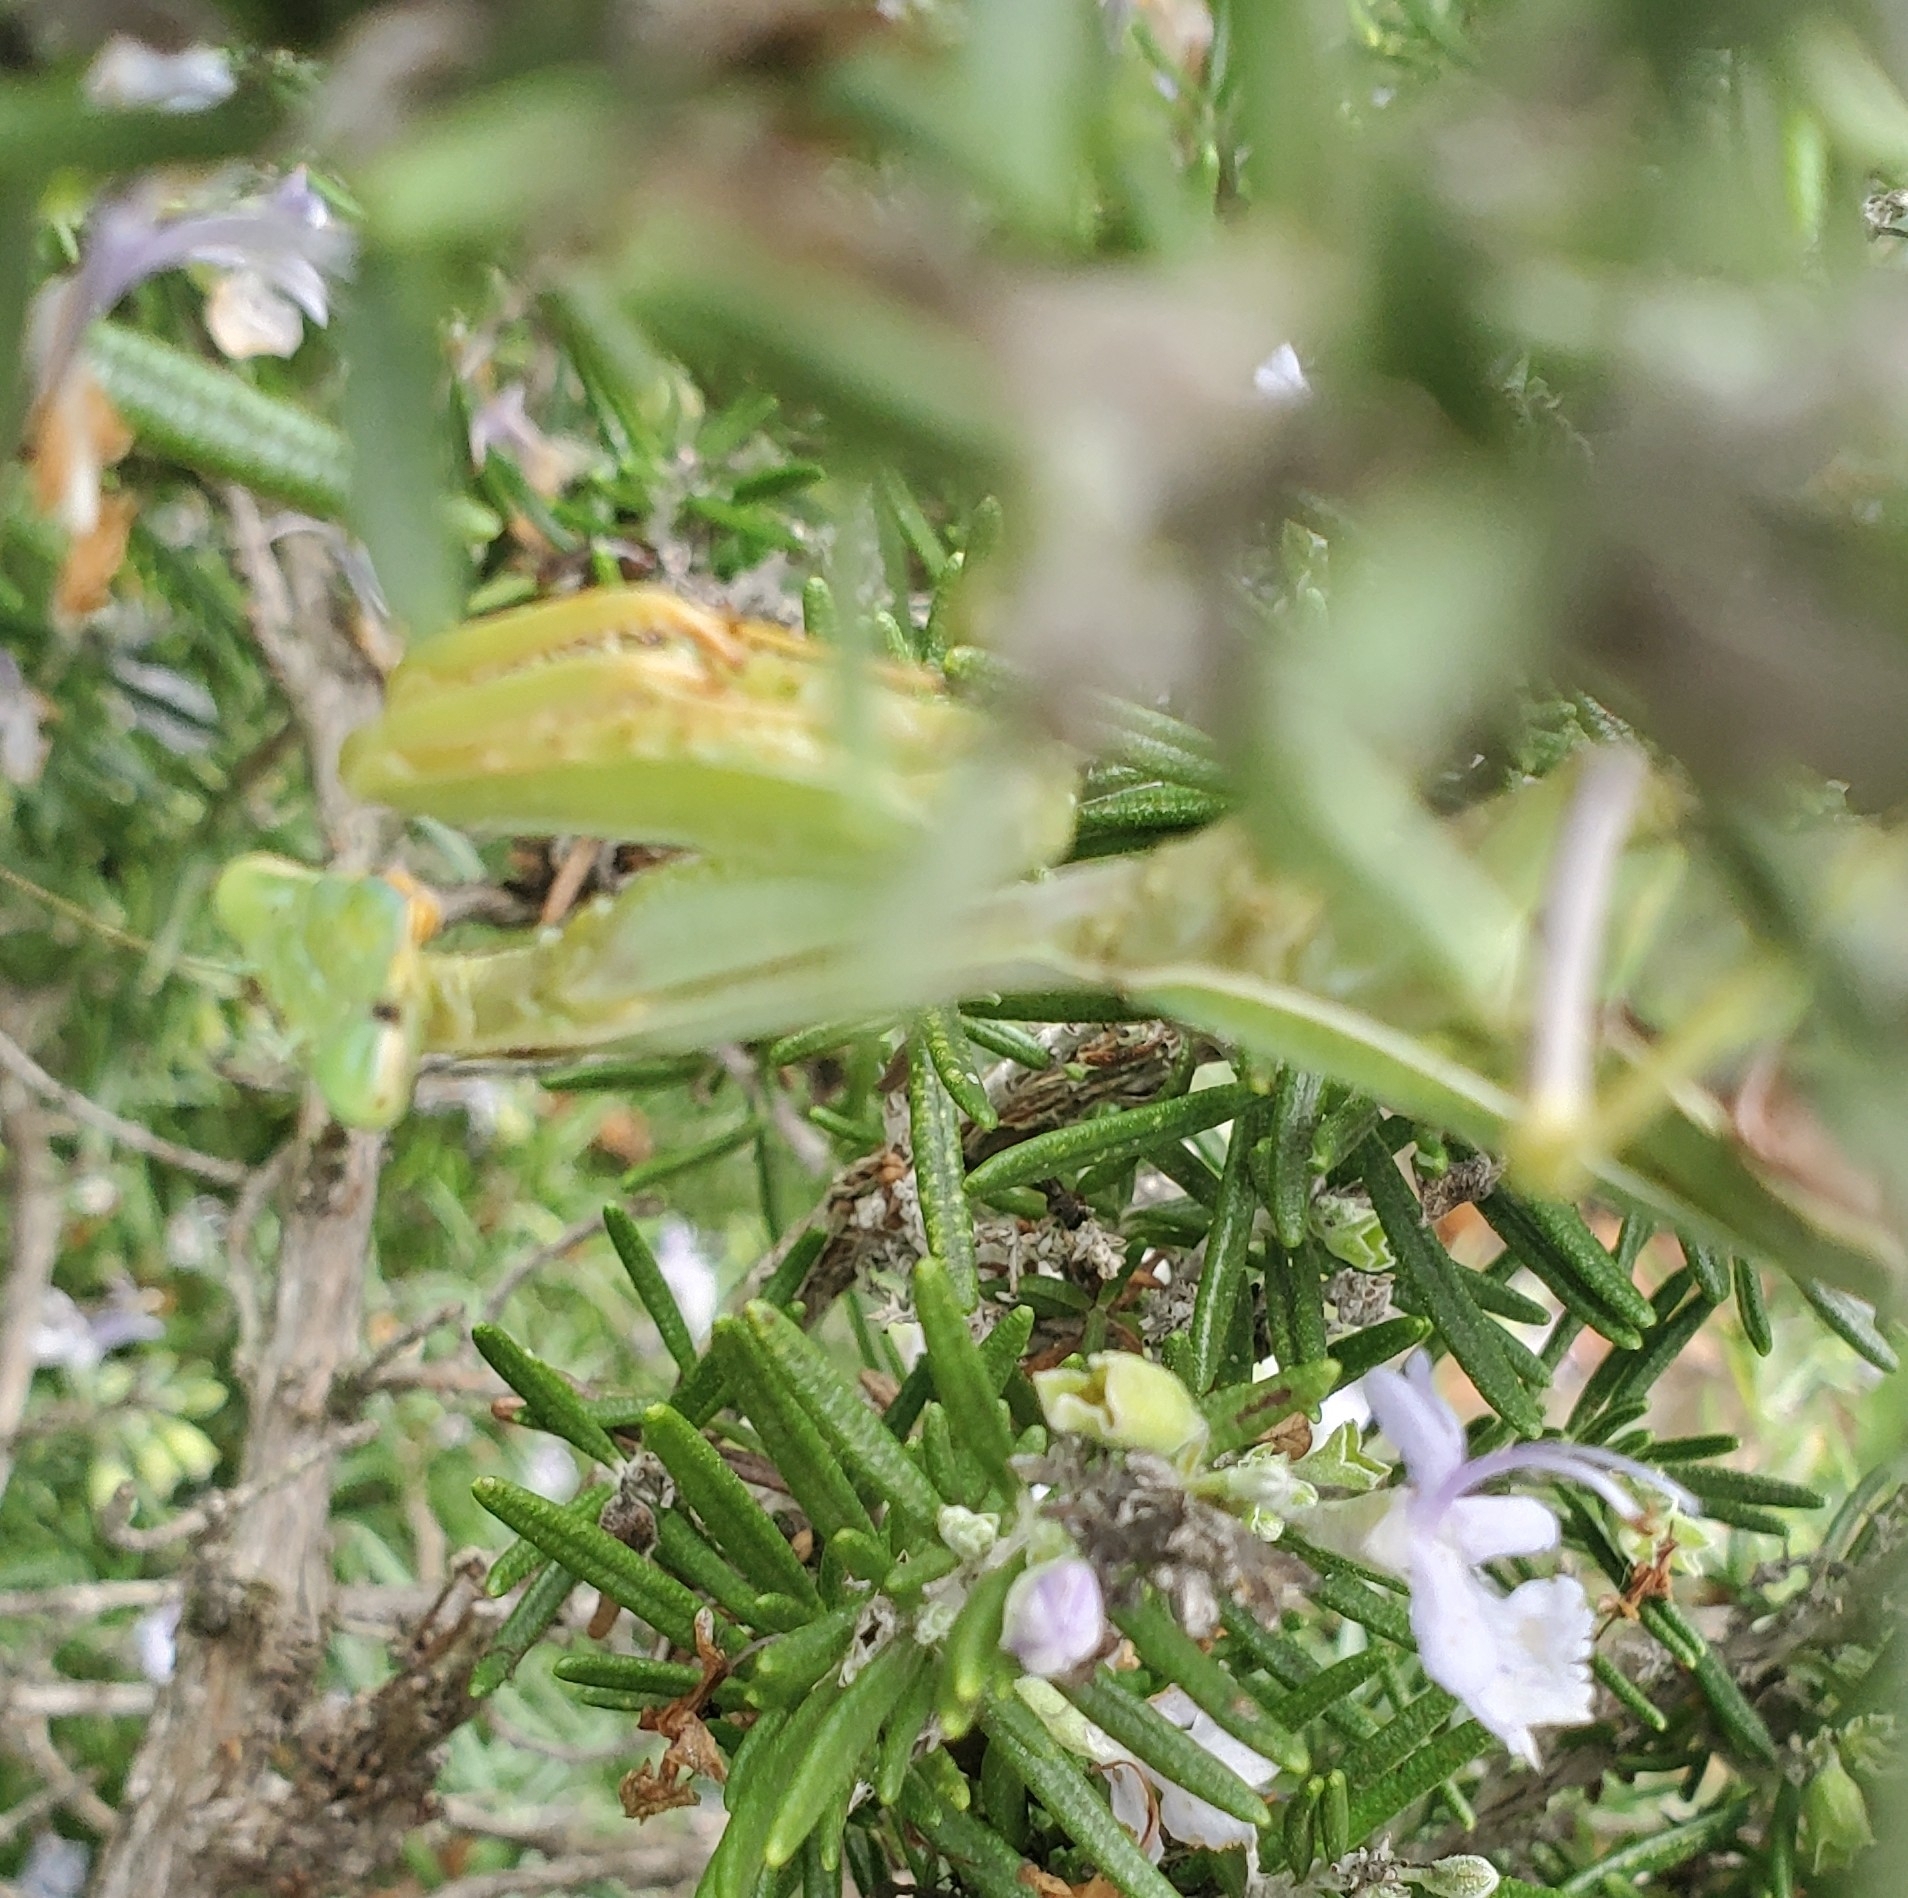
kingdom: Animalia
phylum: Arthropoda
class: Insecta
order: Mantodea
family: Mantidae
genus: Stagmomantis
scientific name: Stagmomantis limbata
